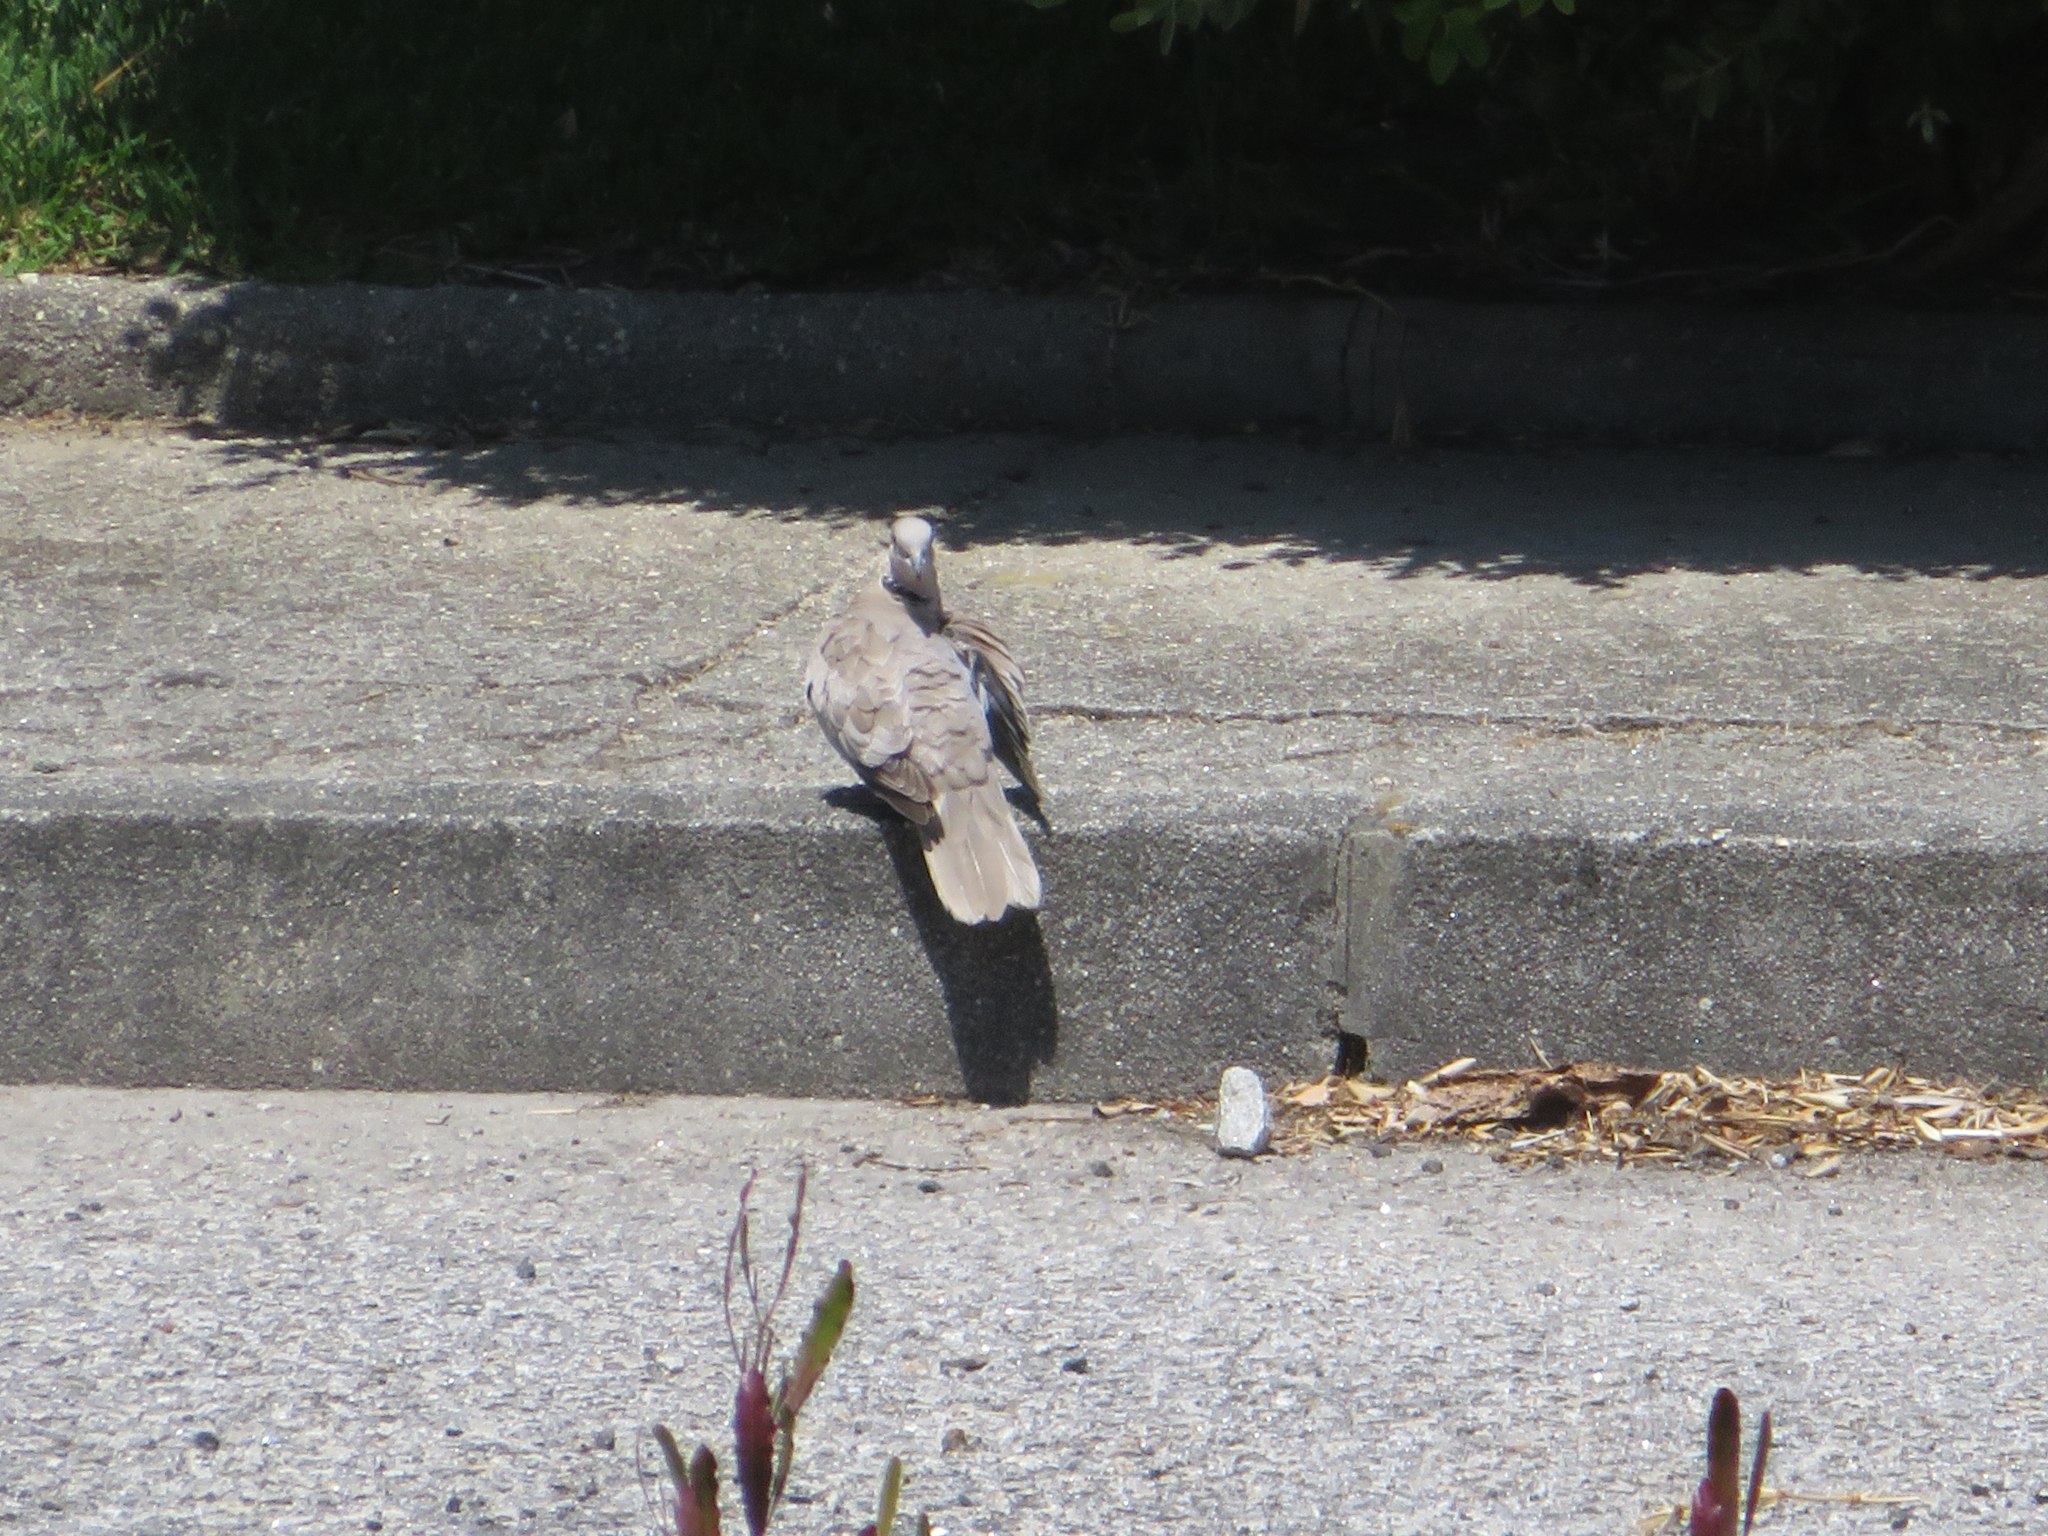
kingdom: Animalia
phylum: Chordata
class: Aves
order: Columbiformes
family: Columbidae
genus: Streptopelia
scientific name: Streptopelia decaocto
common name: Eurasian collared dove
